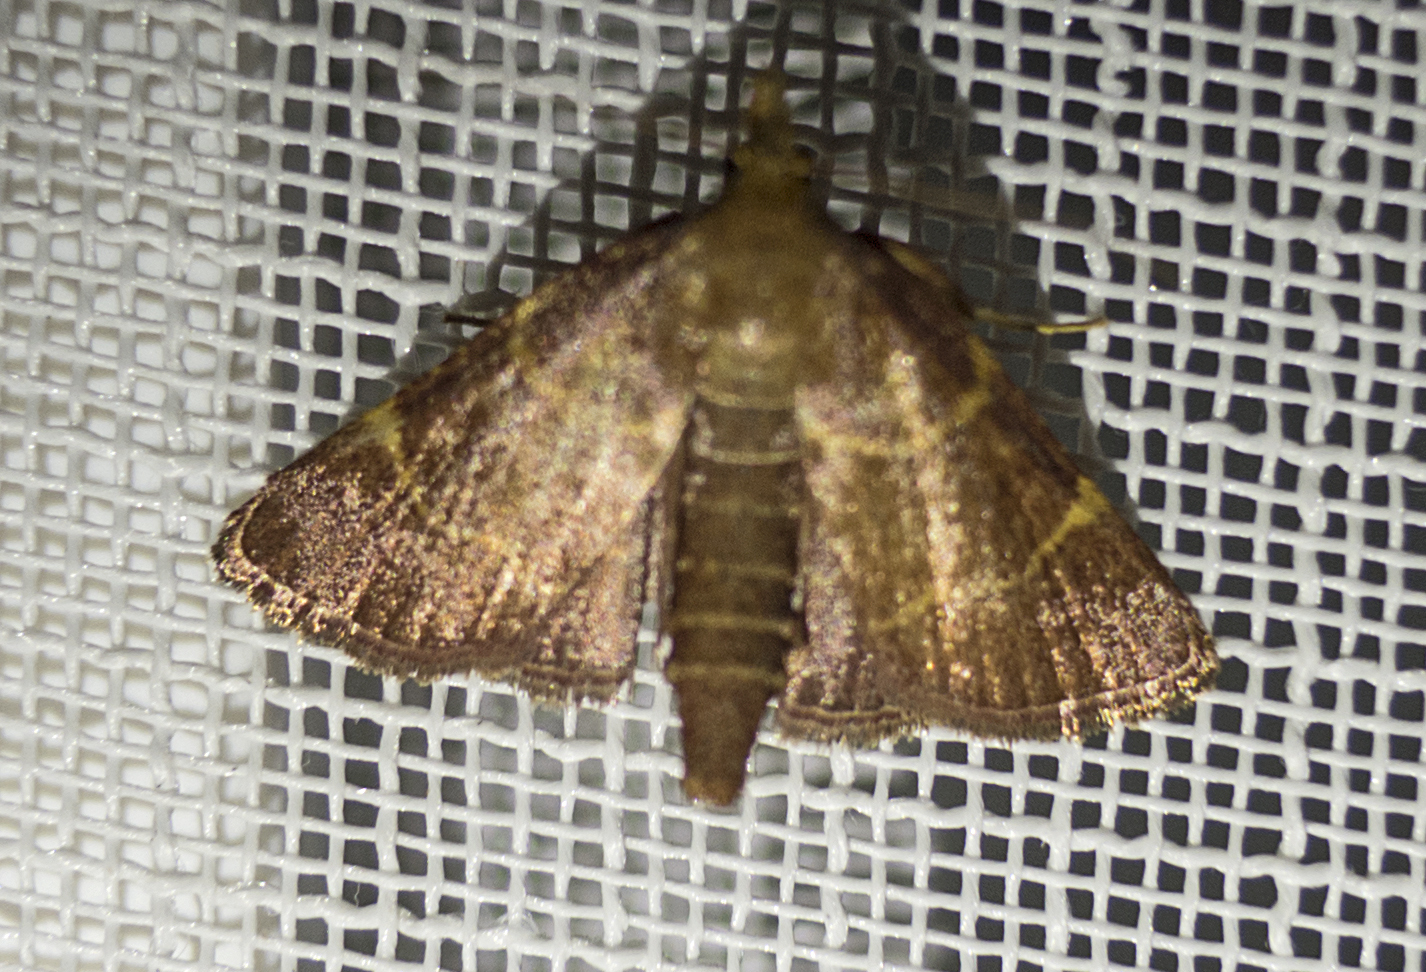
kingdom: Animalia
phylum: Arthropoda
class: Insecta
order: Lepidoptera
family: Pyralidae
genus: Herculia
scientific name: Herculia rubidalis
